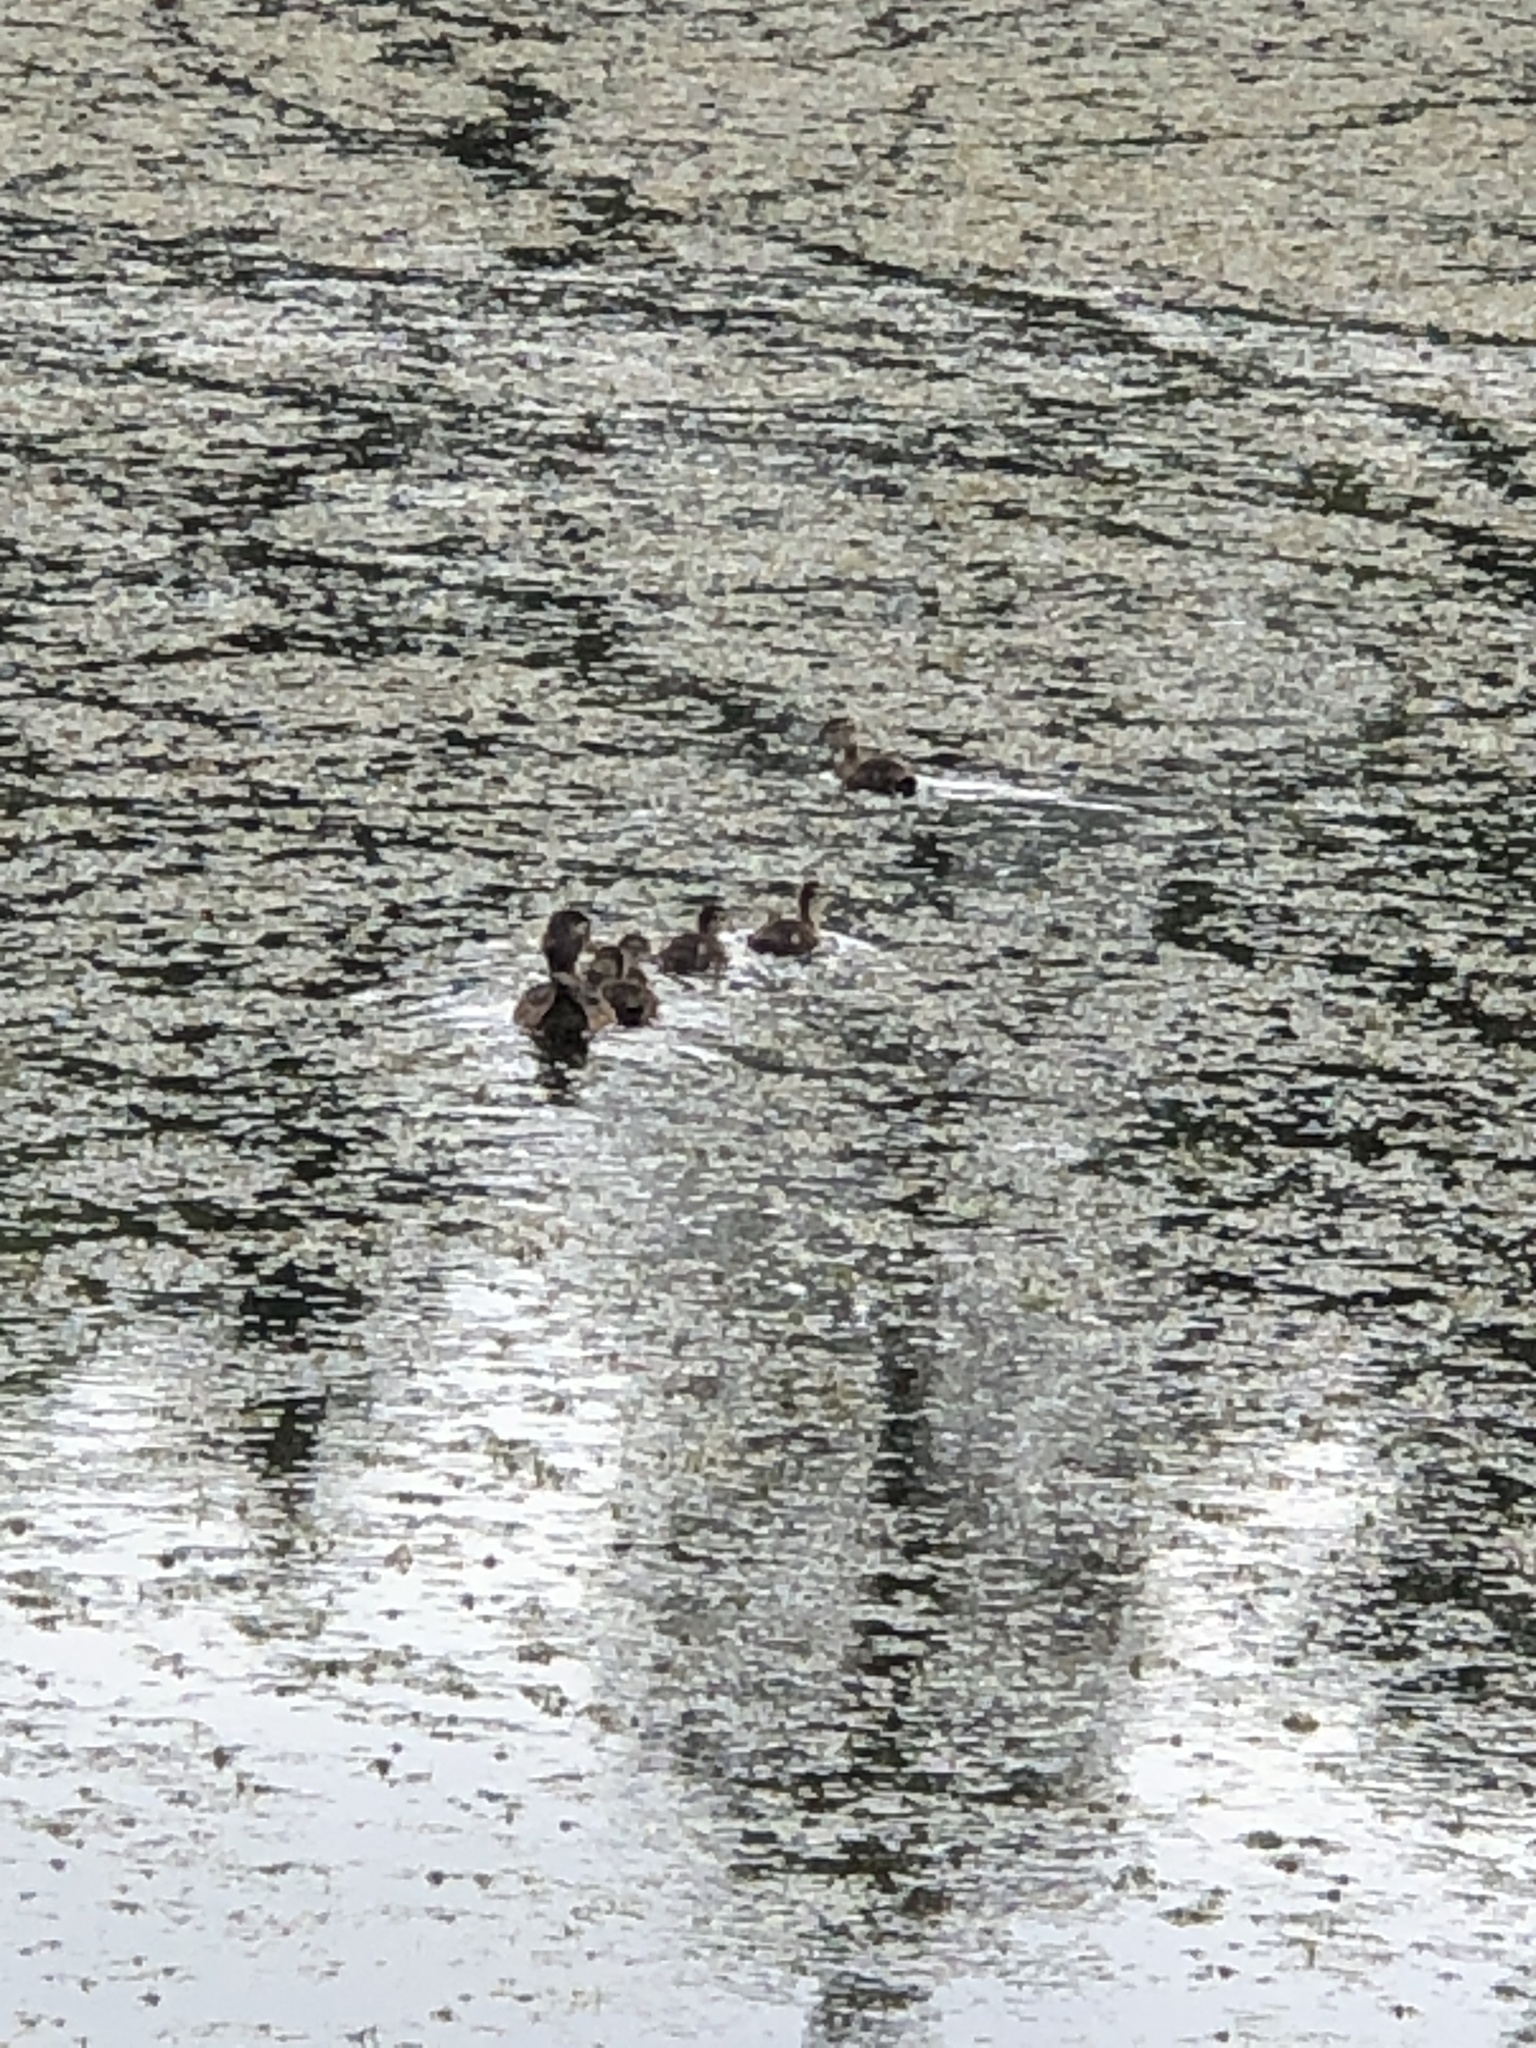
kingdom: Animalia
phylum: Chordata
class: Aves
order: Anseriformes
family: Anatidae
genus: Aix
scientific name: Aix sponsa
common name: Wood duck
